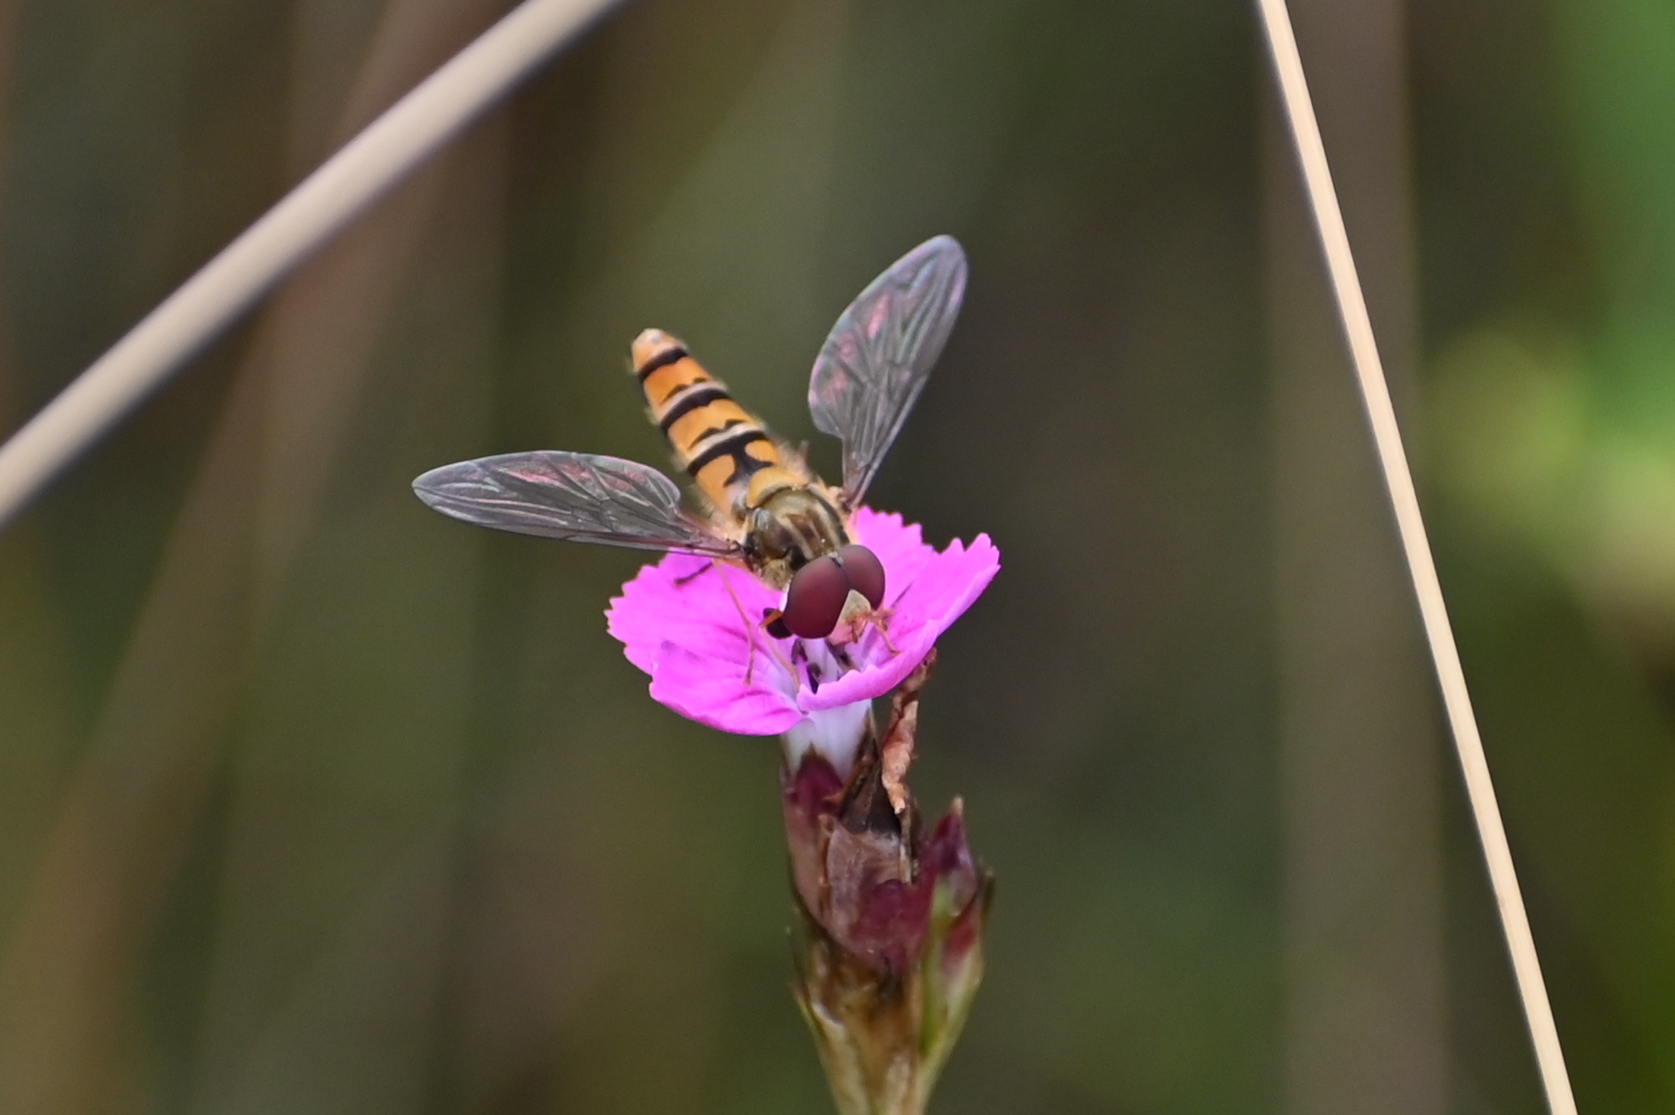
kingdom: Animalia
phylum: Arthropoda
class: Insecta
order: Diptera
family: Syrphidae
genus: Episyrphus
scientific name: Episyrphus balteatus
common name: Marmalade hoverfly
